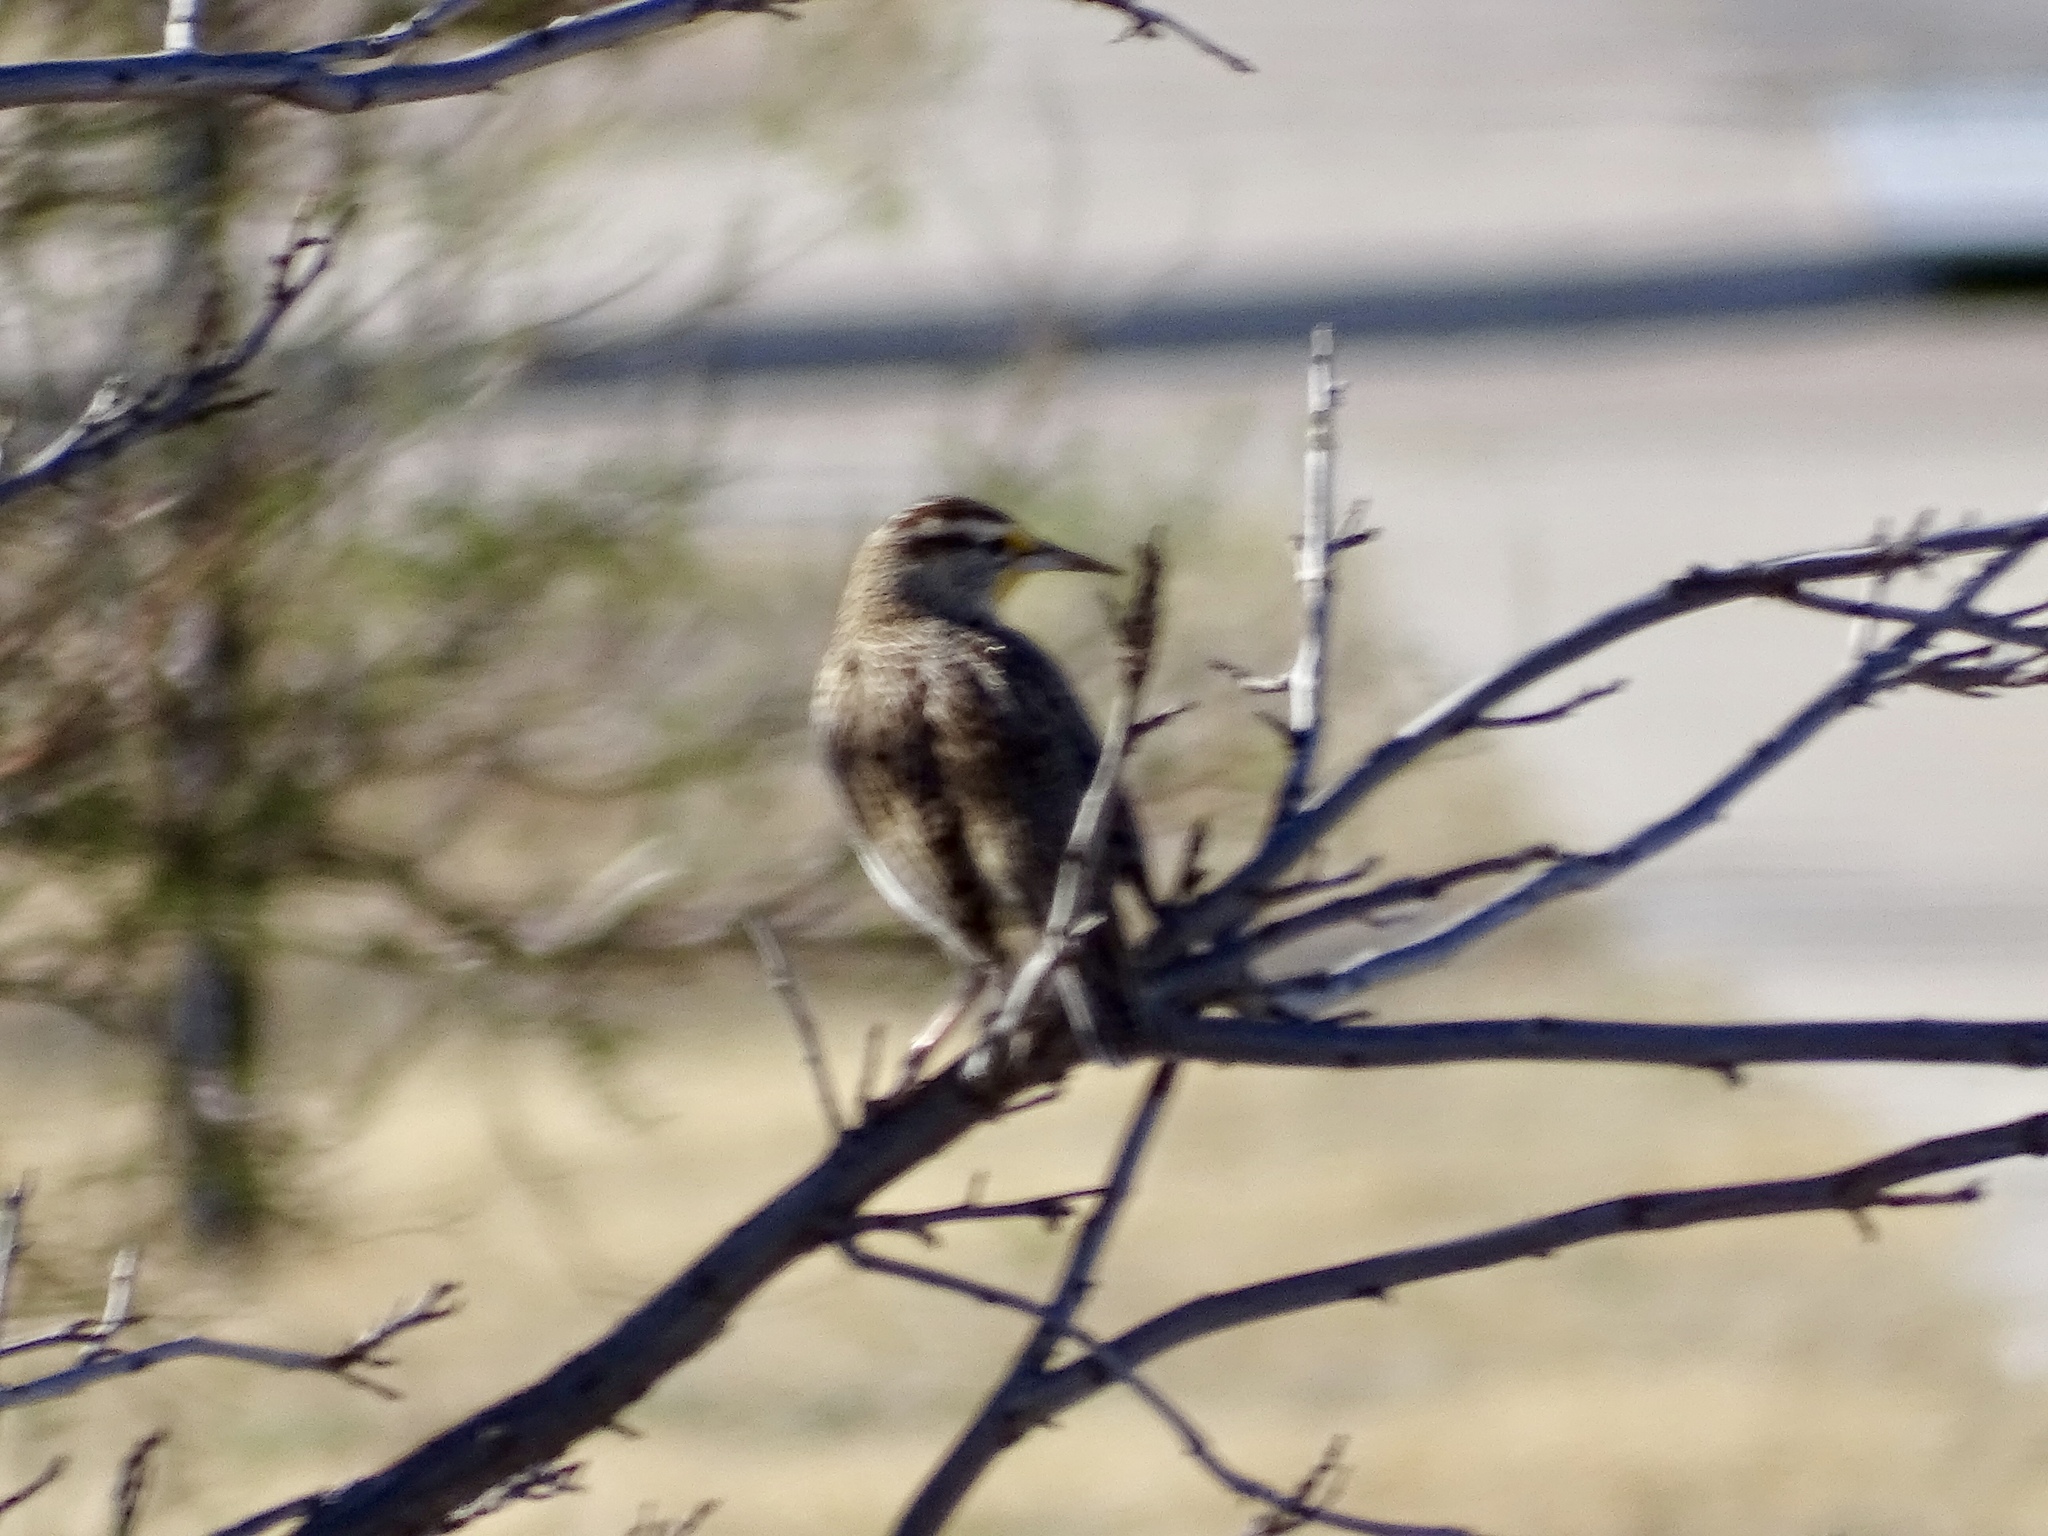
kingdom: Animalia
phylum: Chordata
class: Aves
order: Passeriformes
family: Icteridae
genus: Sturnella
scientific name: Sturnella neglecta
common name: Western meadowlark
